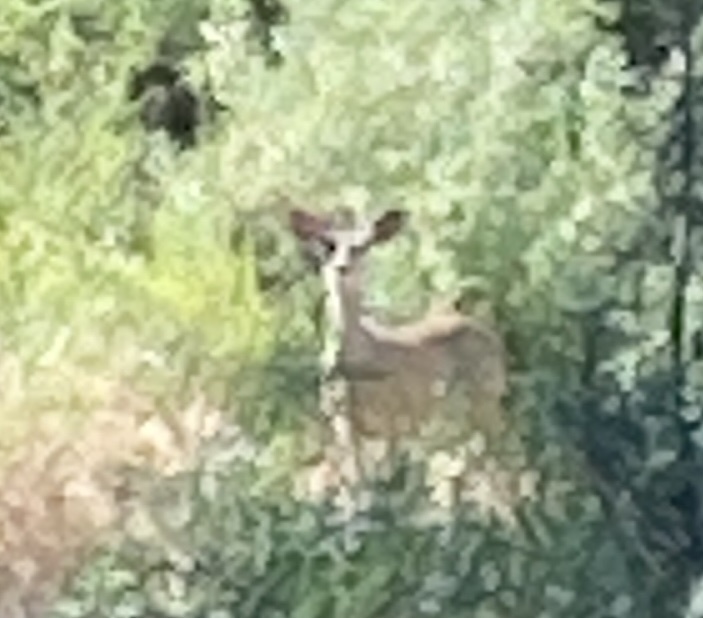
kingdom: Animalia
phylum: Chordata
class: Mammalia
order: Artiodactyla
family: Cervidae
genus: Odocoileus
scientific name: Odocoileus hemionus
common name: Mule deer
